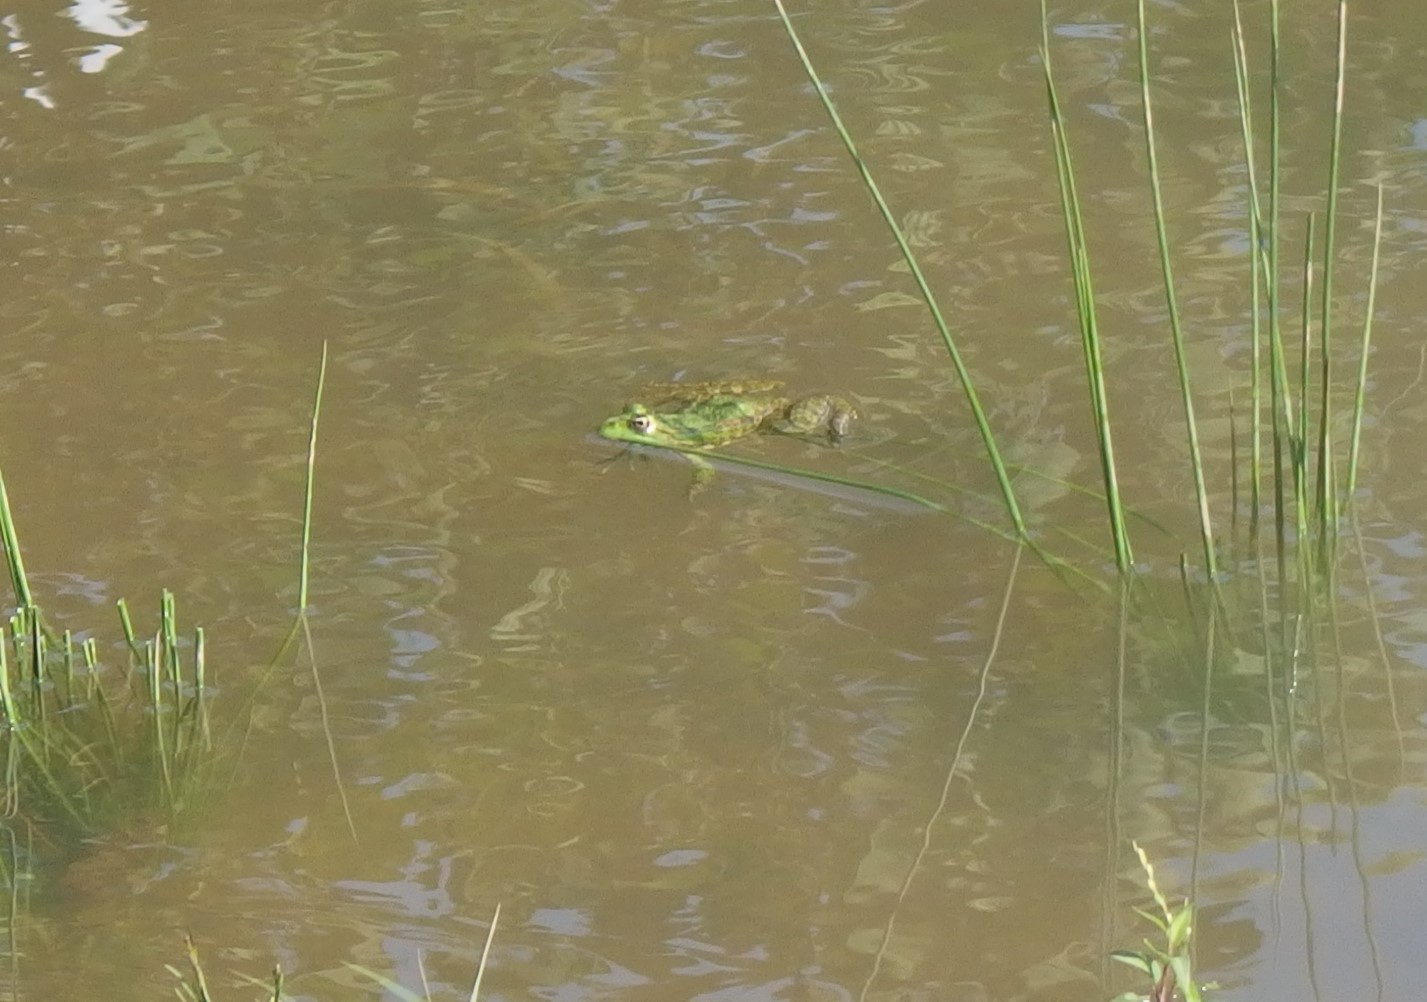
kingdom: Animalia
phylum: Chordata
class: Amphibia
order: Anura
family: Ranidae
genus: Pelophylax
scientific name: Pelophylax ridibundus
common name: Marsh frog
